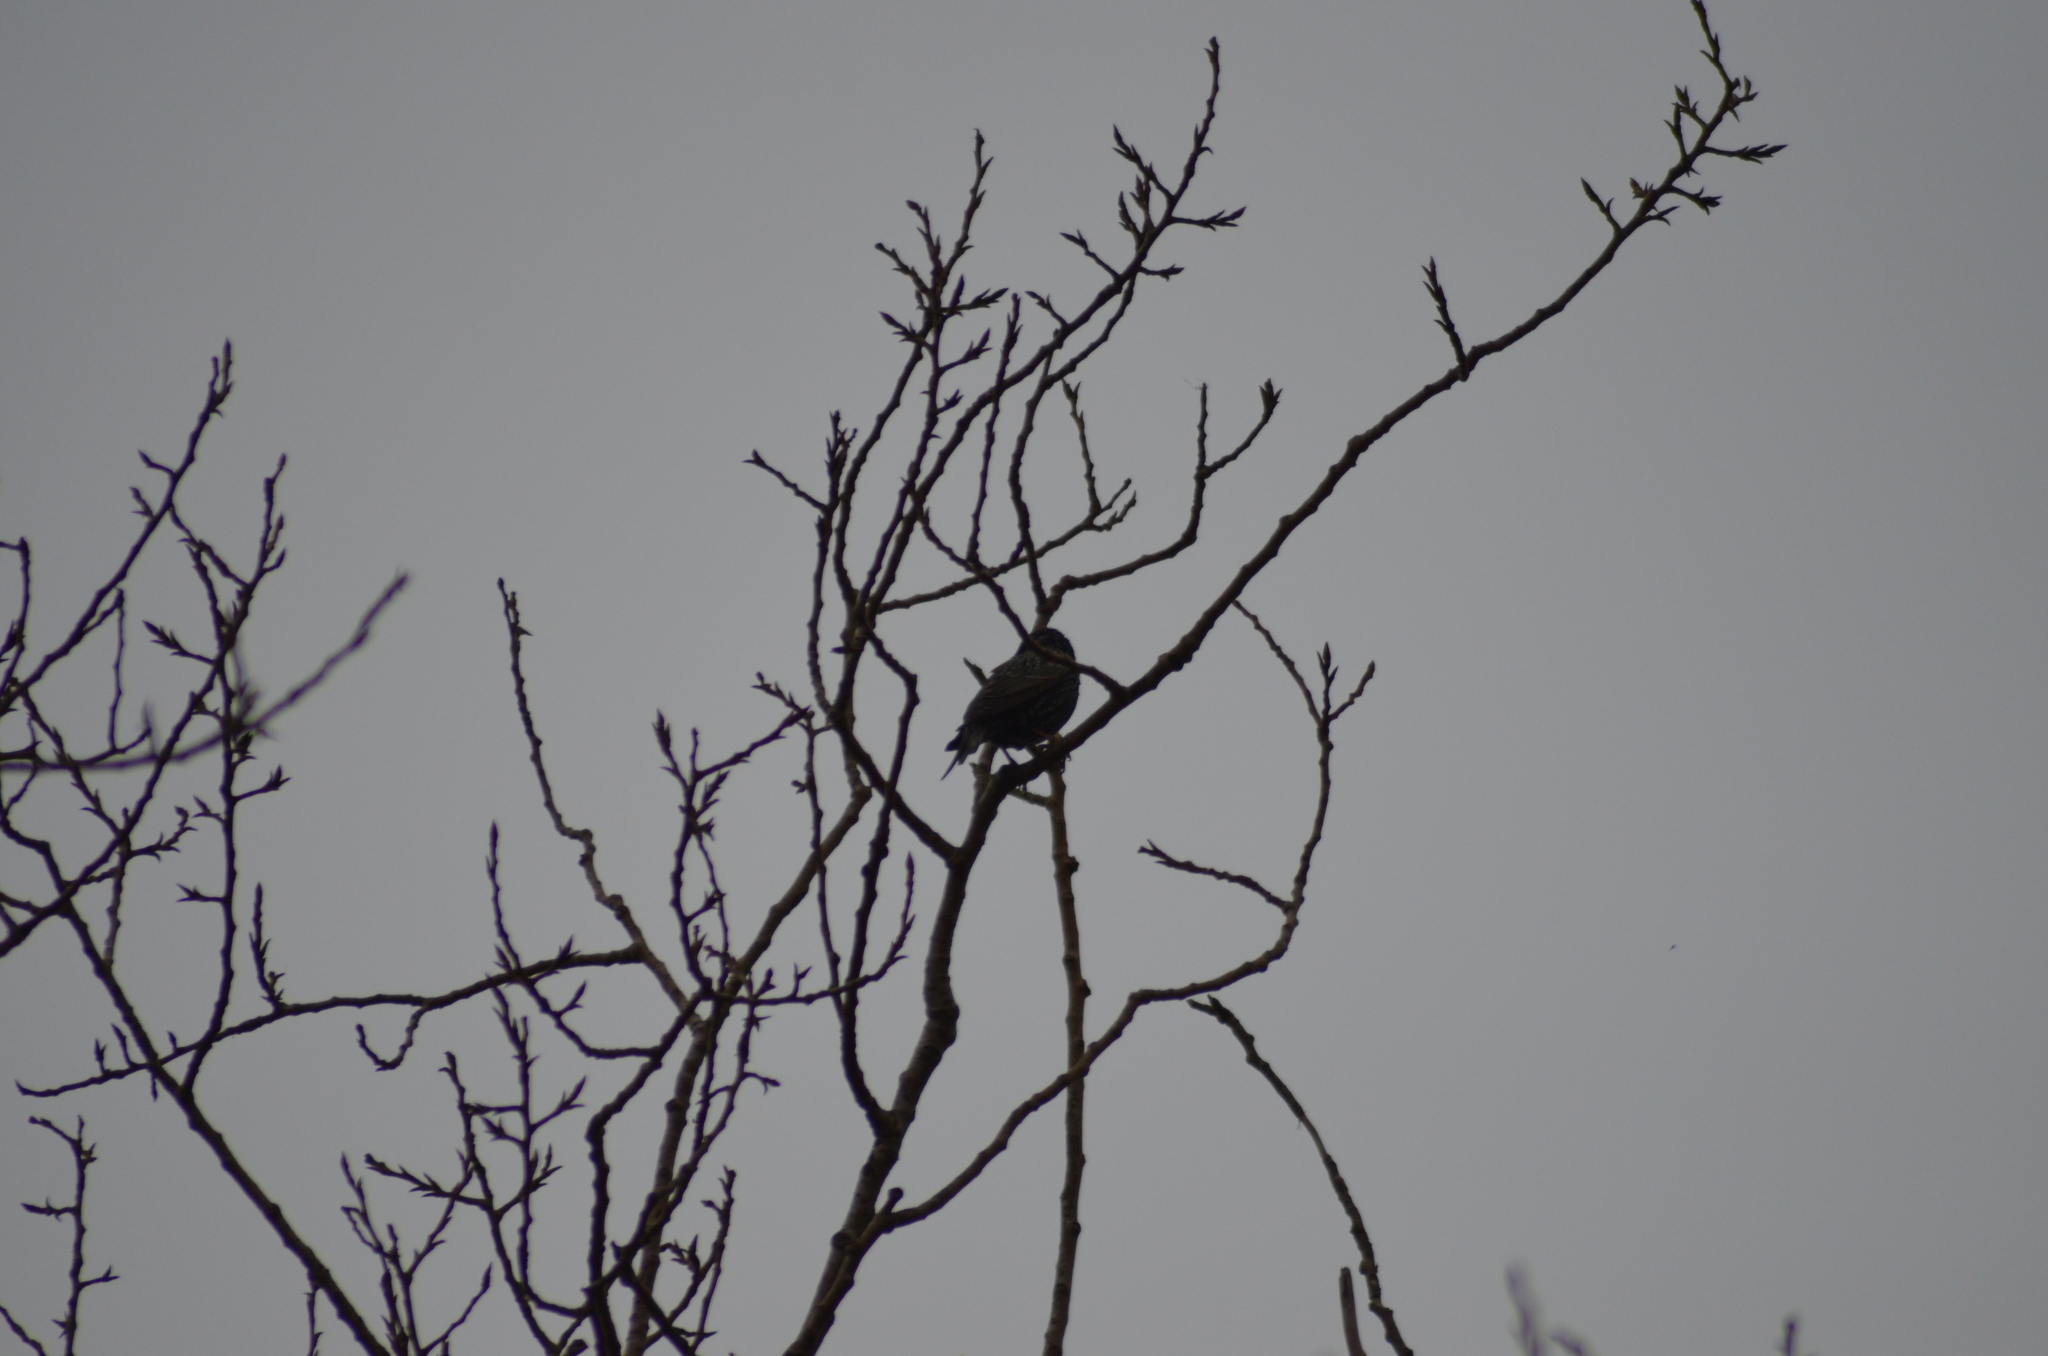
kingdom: Animalia
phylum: Chordata
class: Aves
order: Passeriformes
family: Sturnidae
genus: Sturnus
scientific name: Sturnus vulgaris
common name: Common starling
